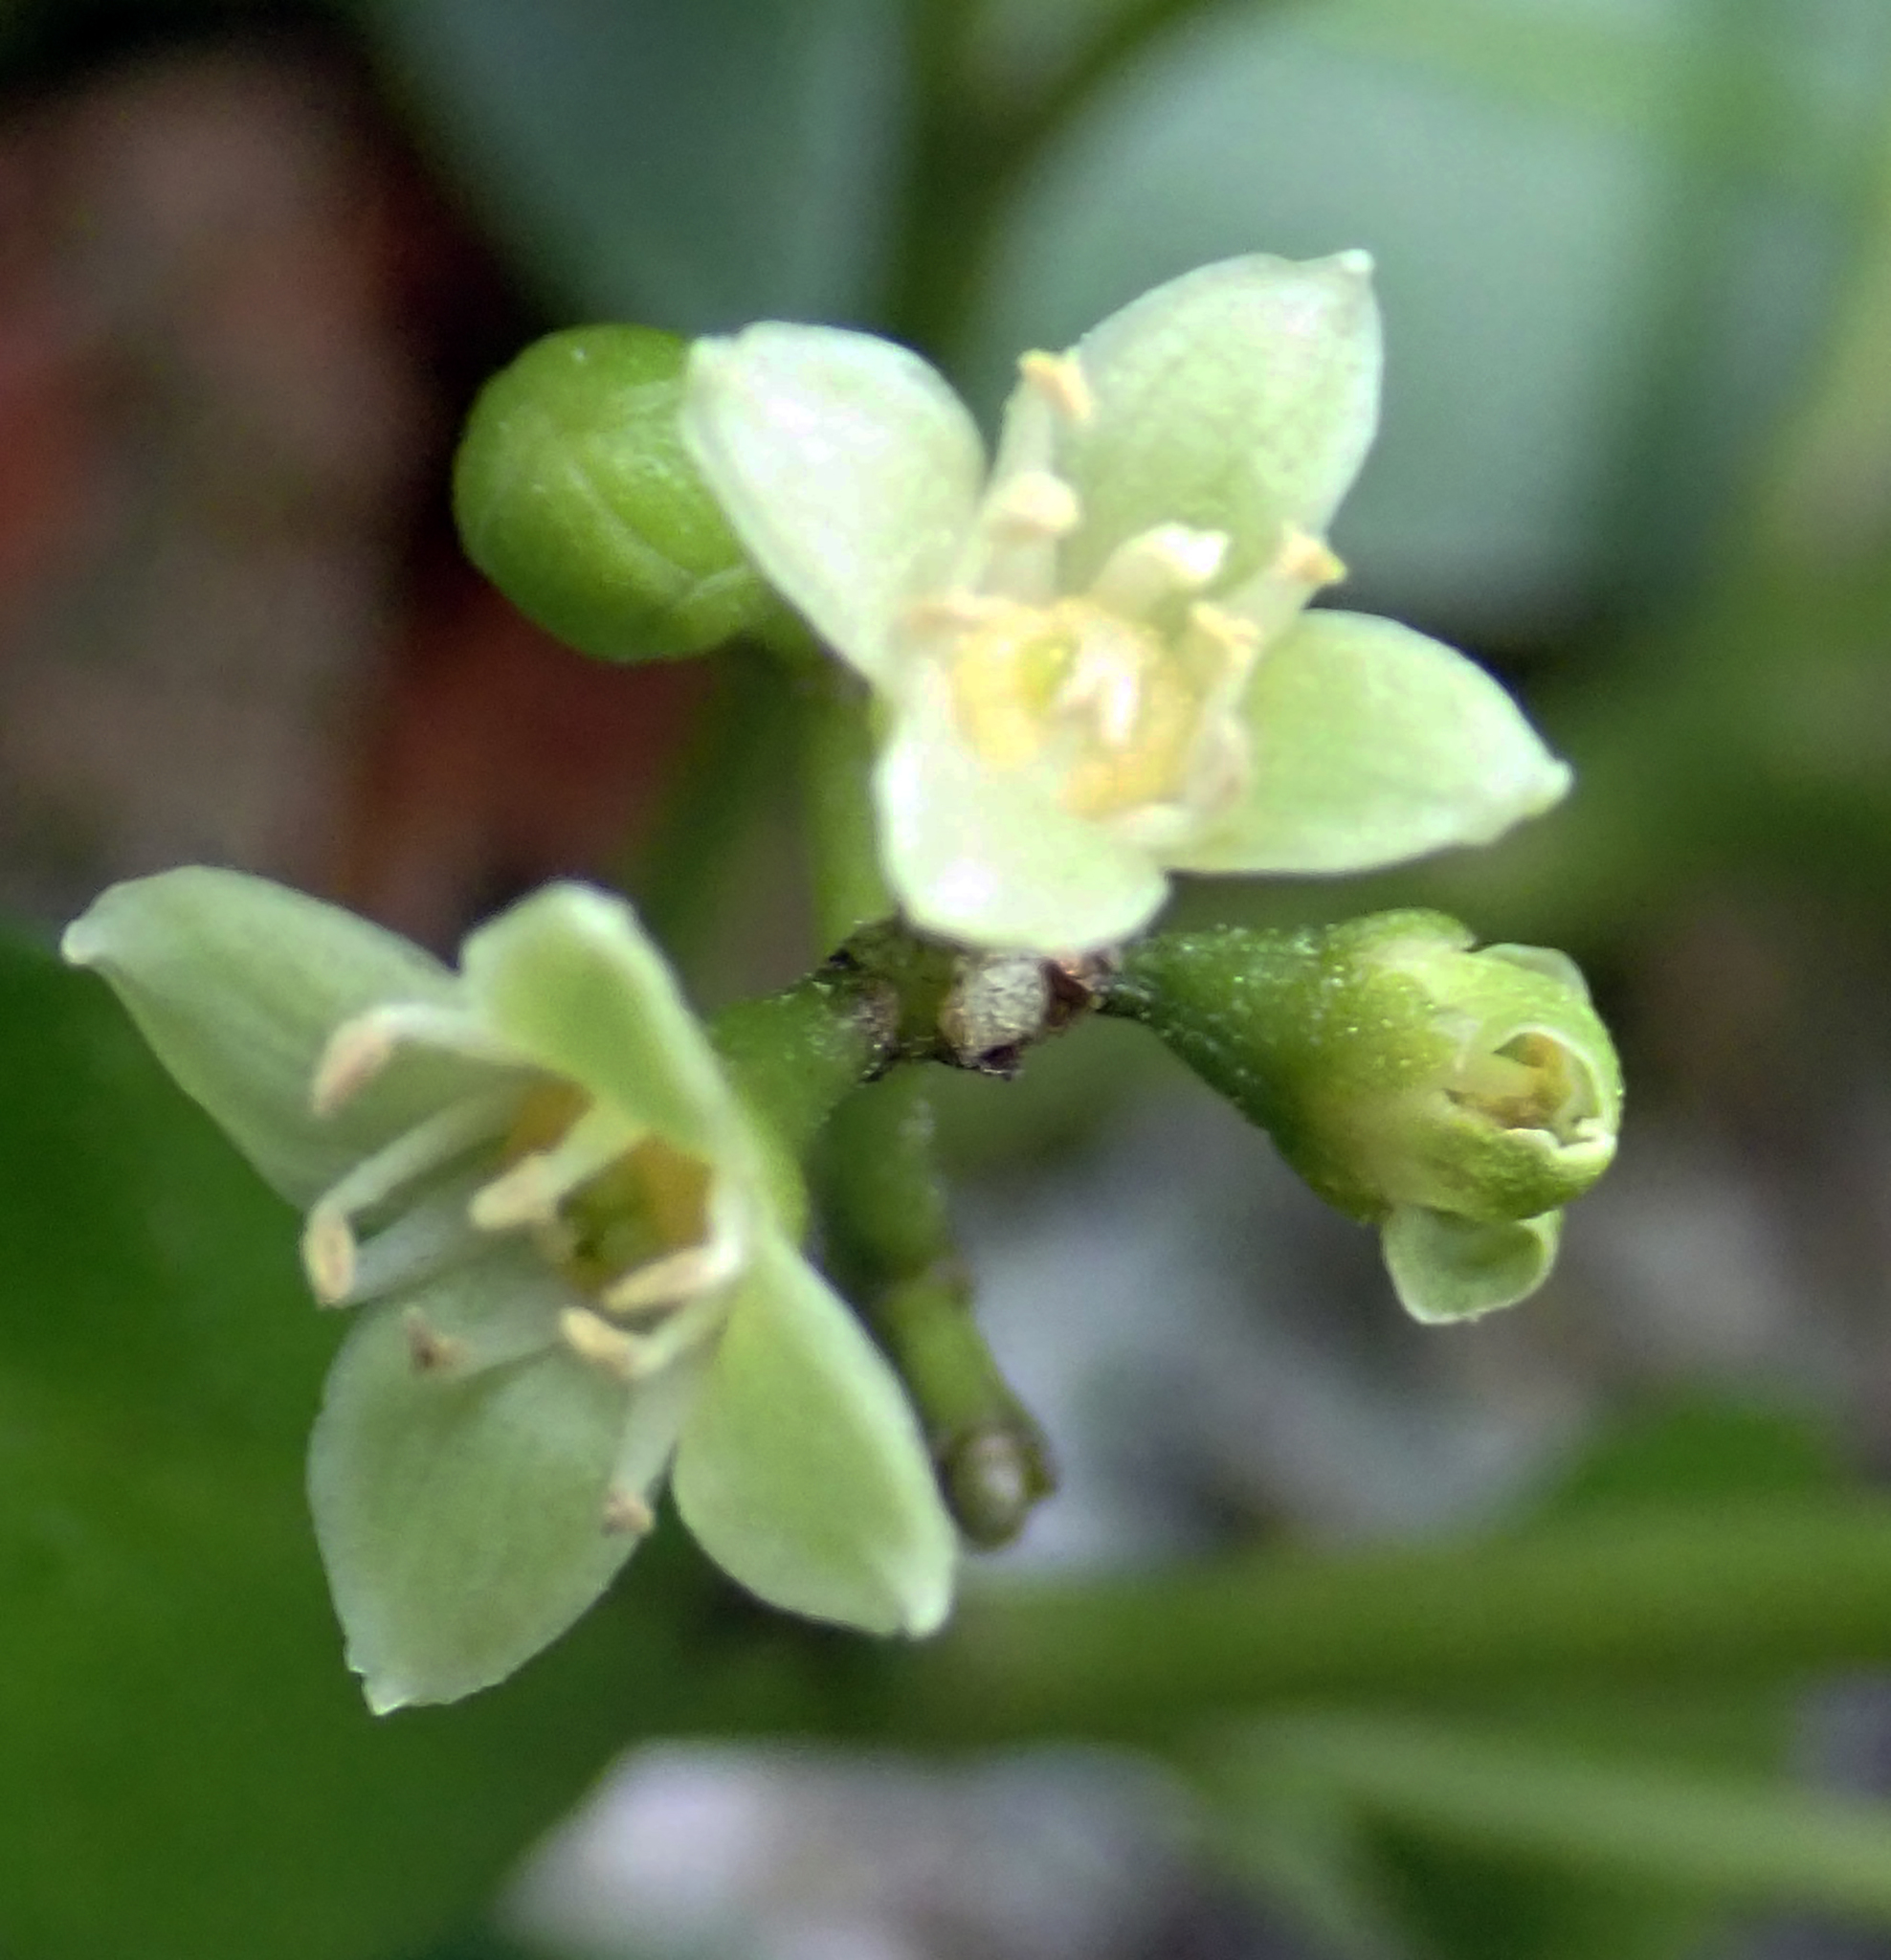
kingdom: Plantae
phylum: Tracheophyta
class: Magnoliopsida
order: Sapindales
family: Rutaceae
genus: Melicope
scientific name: Melicope ternata
